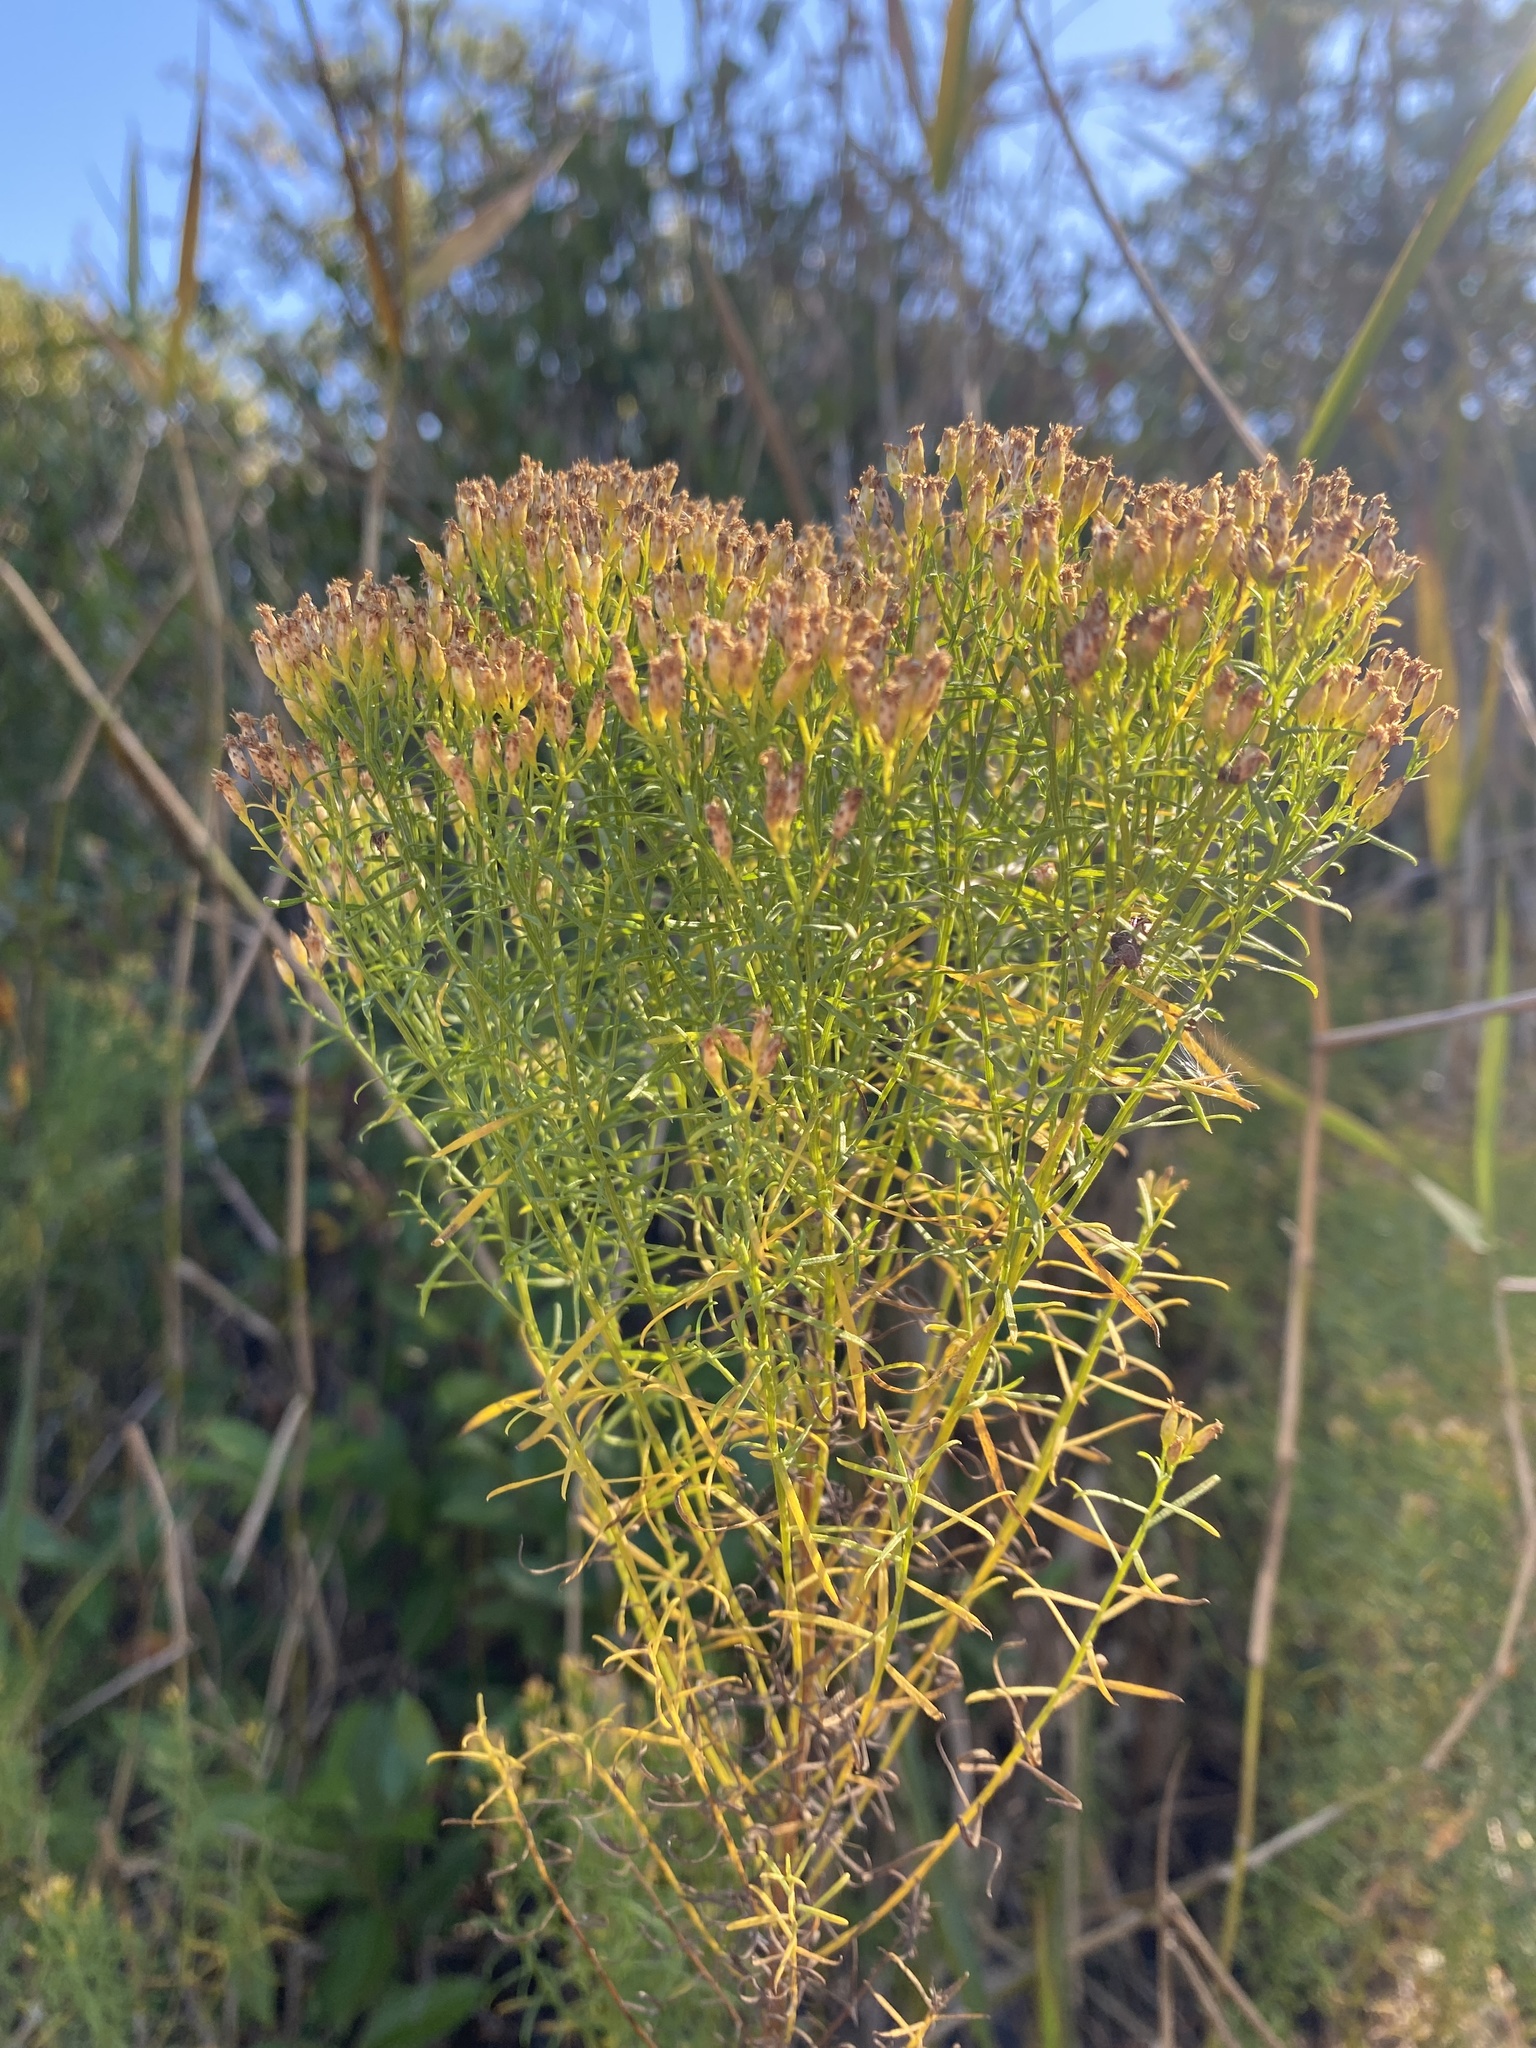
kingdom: Plantae
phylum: Tracheophyta
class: Magnoliopsida
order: Asterales
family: Asteraceae
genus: Euthamia
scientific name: Euthamia caroliniana
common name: Coastal plain goldentop
